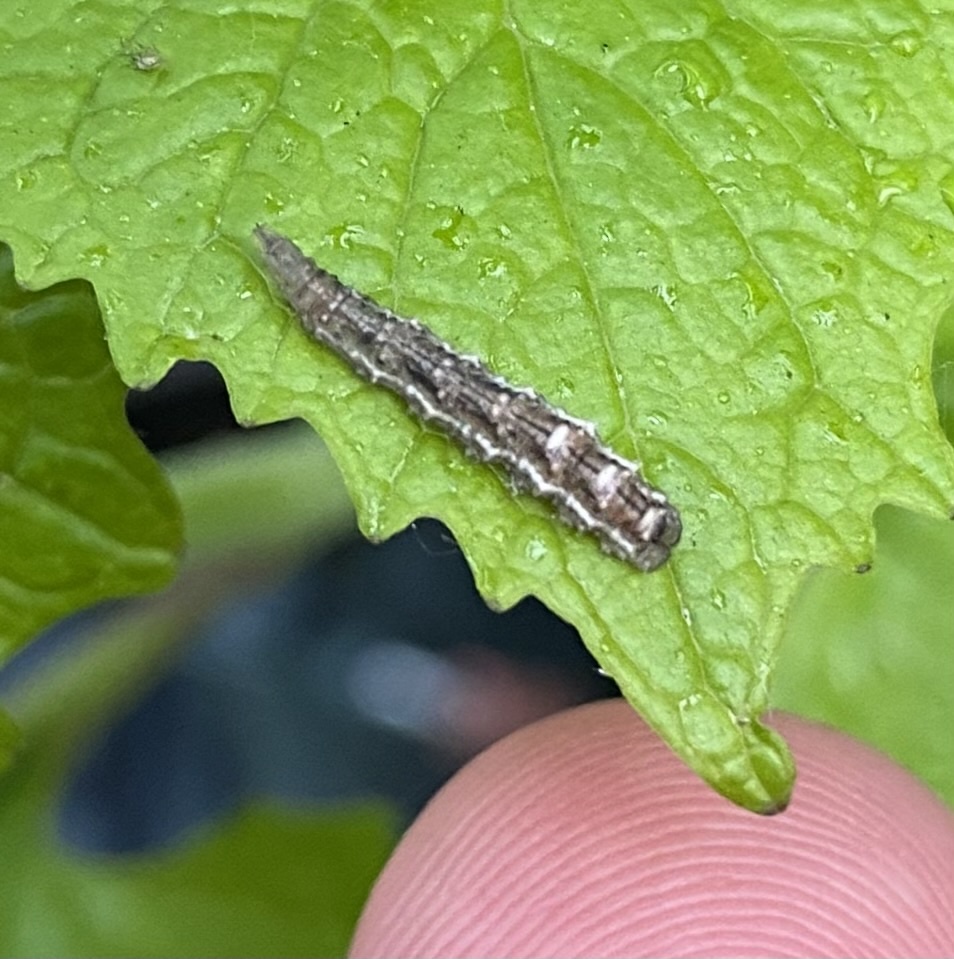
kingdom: Animalia
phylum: Arthropoda
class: Insecta
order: Diptera
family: Syrphidae
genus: Eupeodes
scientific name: Eupeodes
